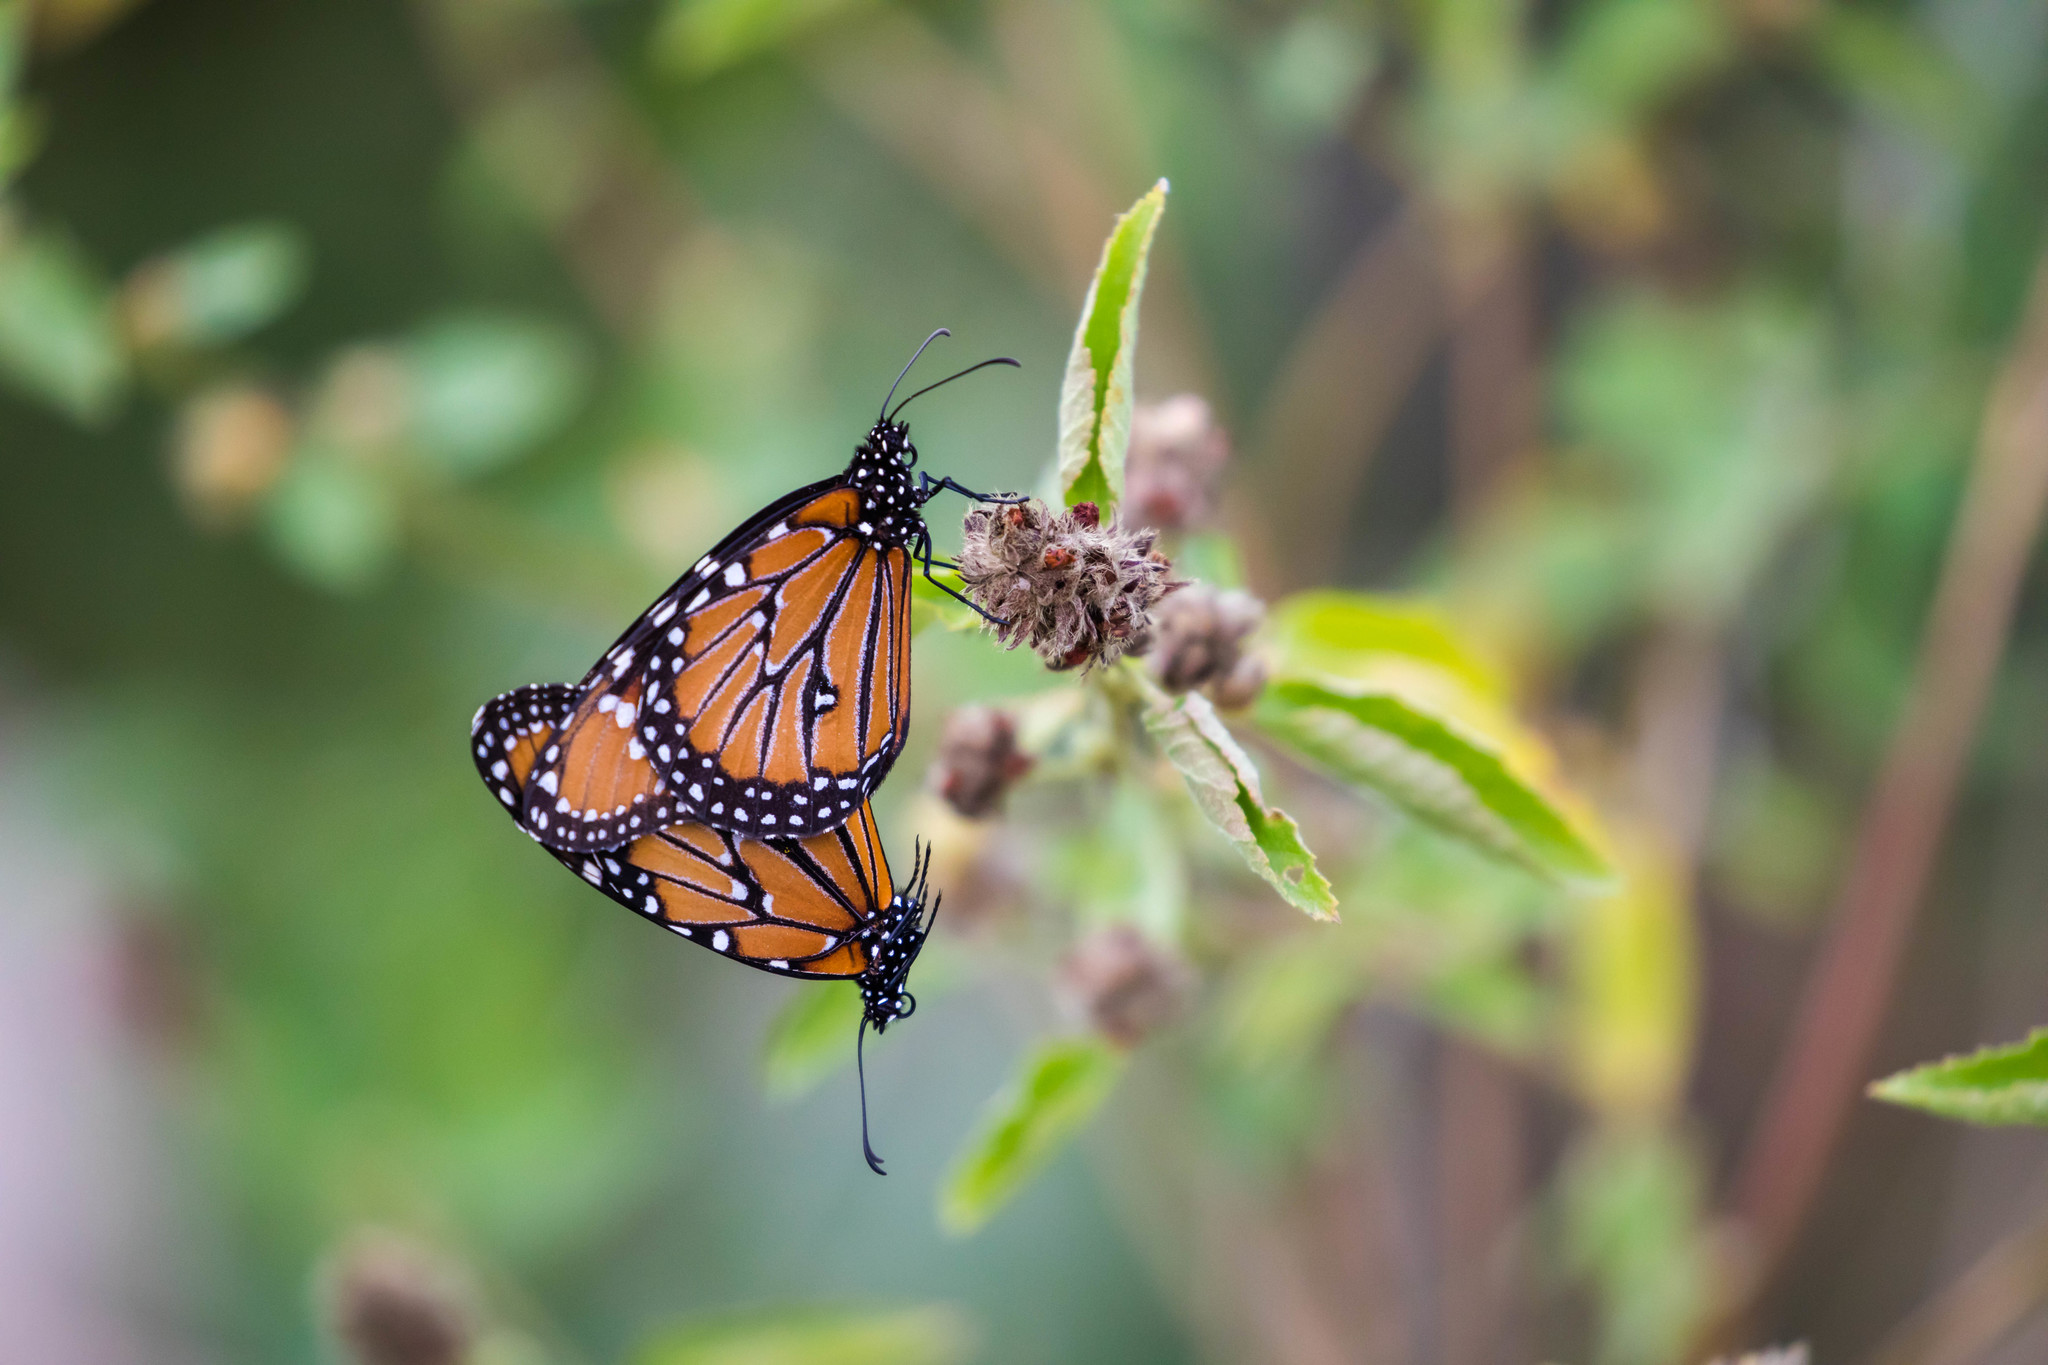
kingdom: Animalia
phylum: Arthropoda
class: Insecta
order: Lepidoptera
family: Nymphalidae
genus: Danaus
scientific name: Danaus gilippus
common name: Queen
